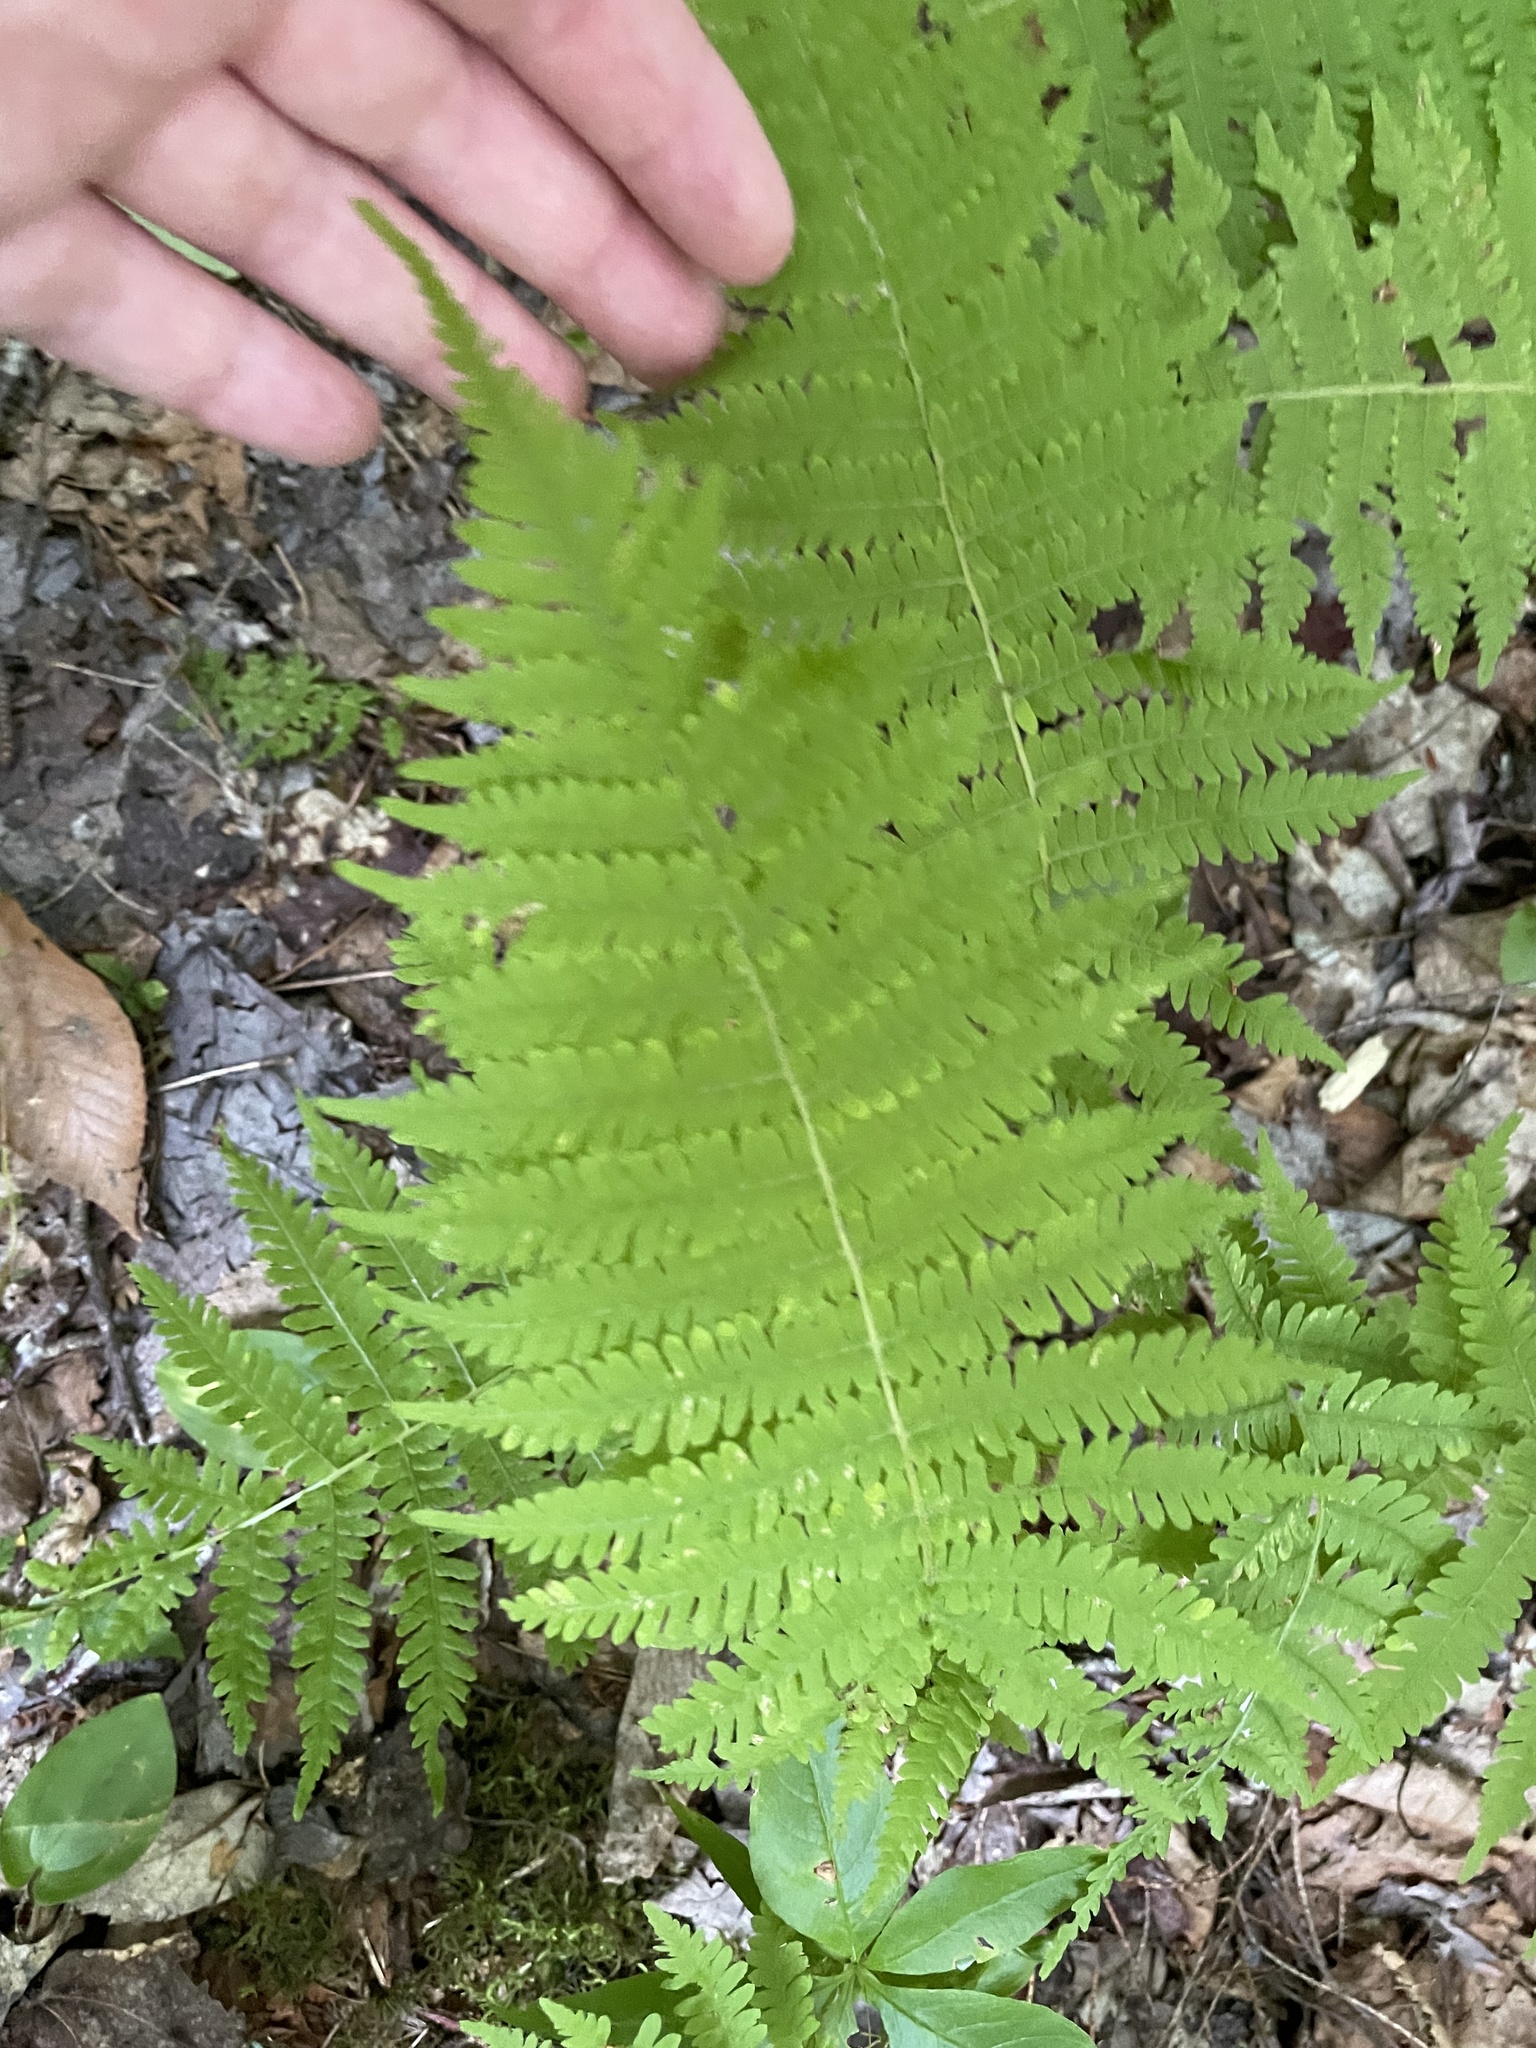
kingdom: Plantae
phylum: Tracheophyta
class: Polypodiopsida
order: Polypodiales
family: Thelypteridaceae
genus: Amauropelta
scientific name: Amauropelta noveboracensis
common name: New york fern
